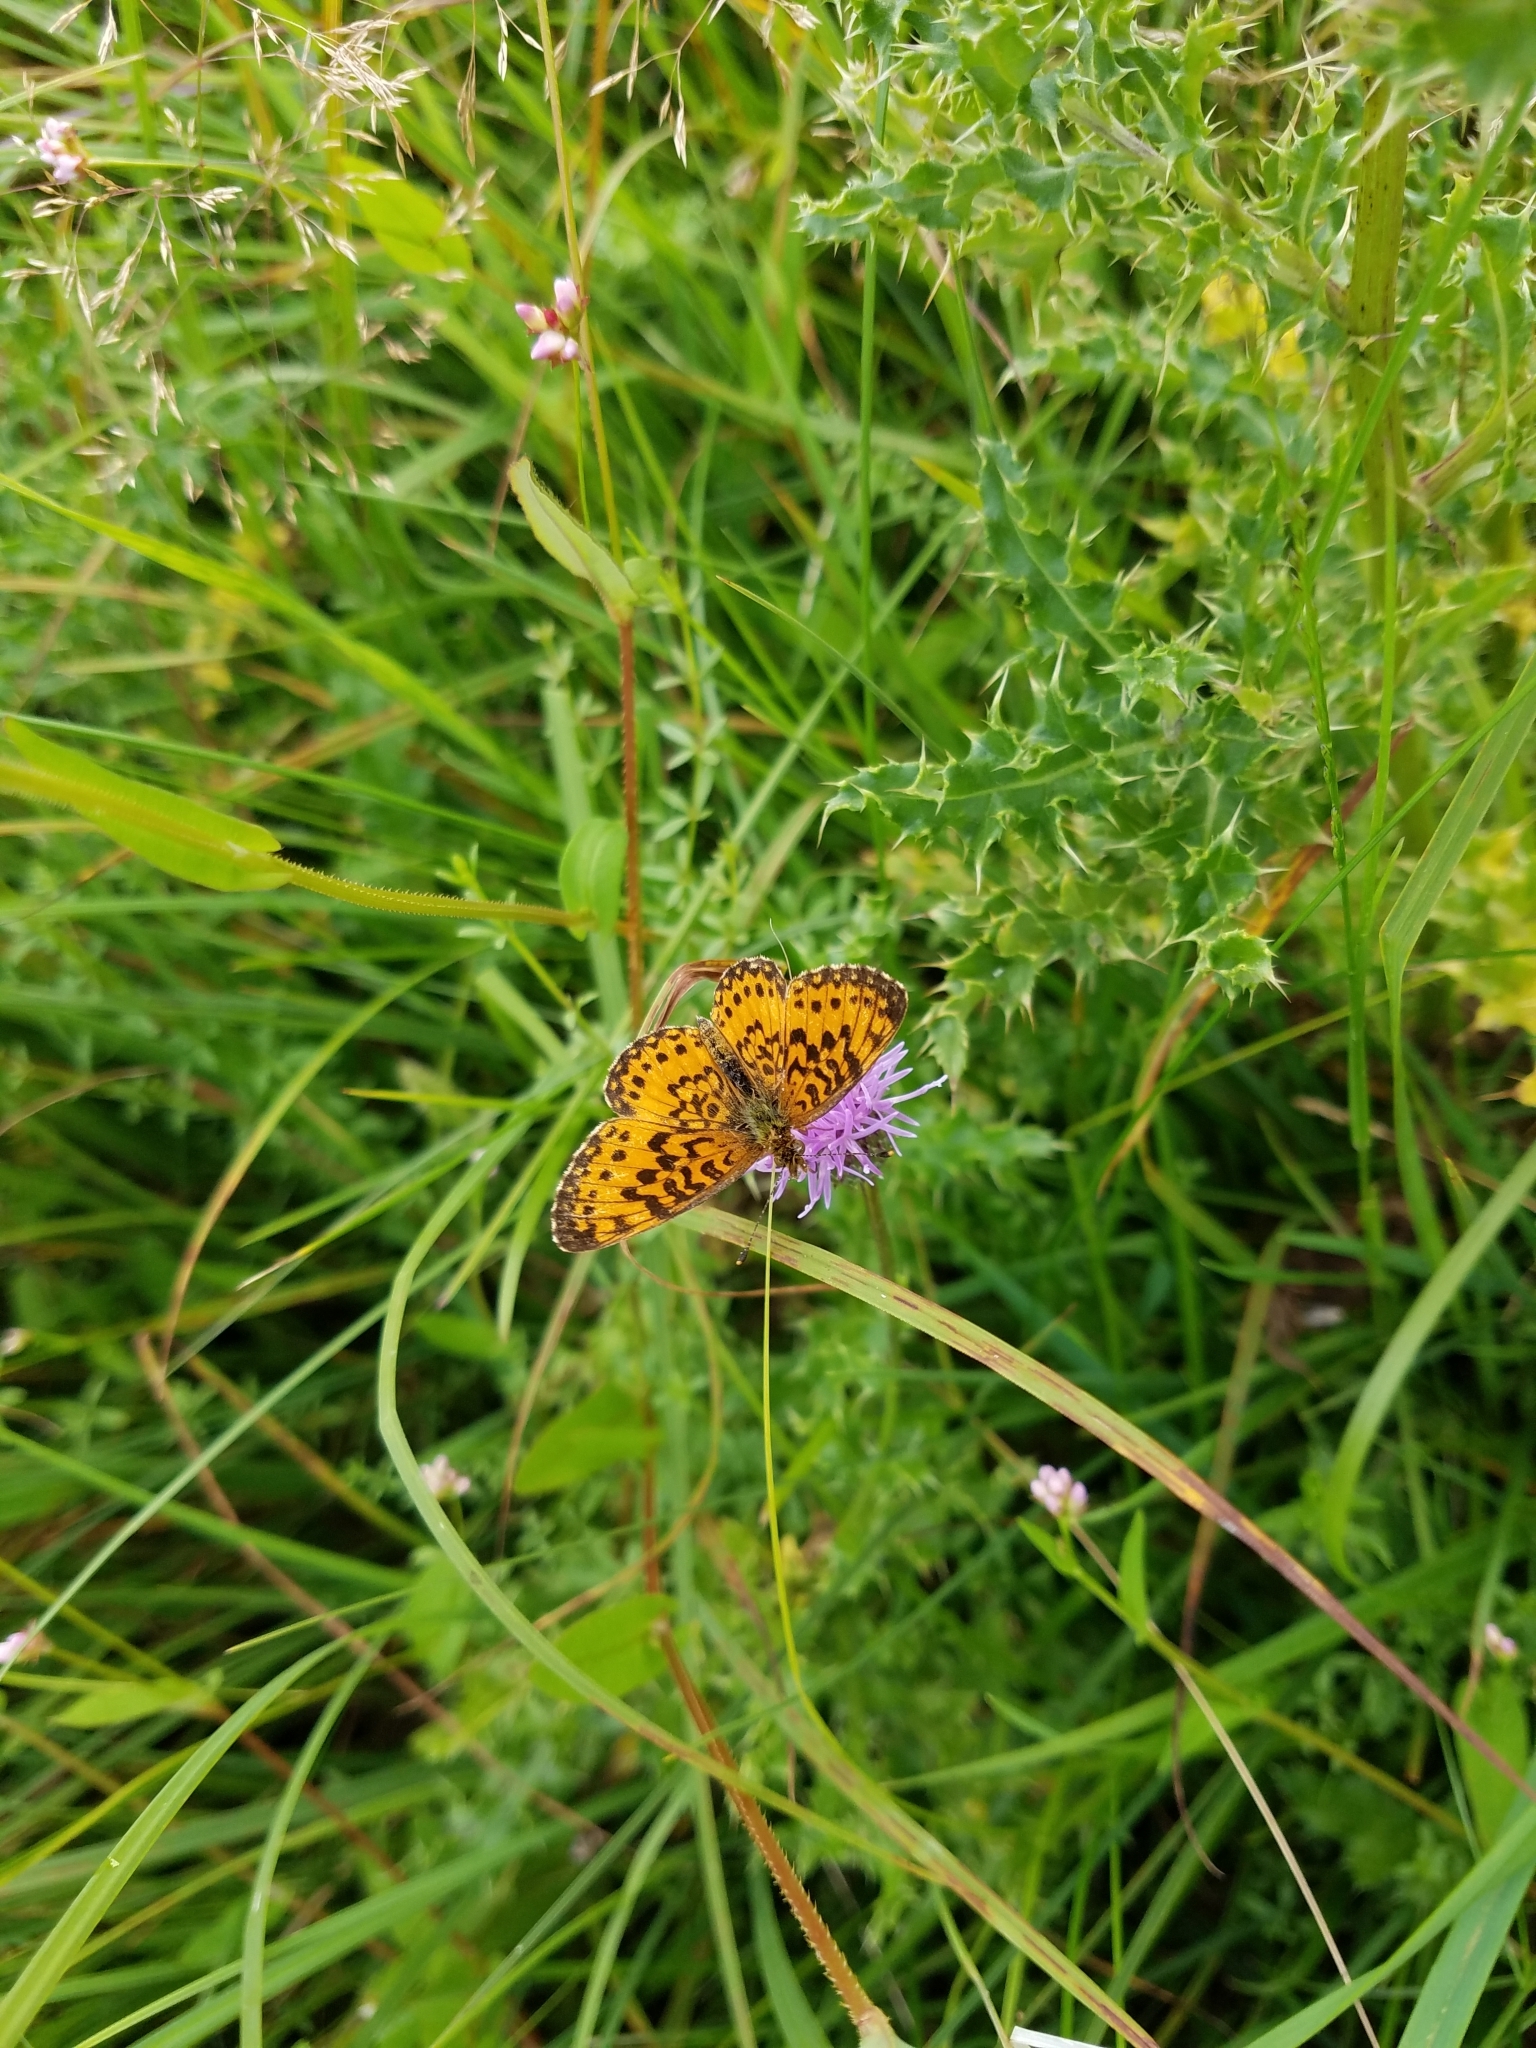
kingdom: Animalia
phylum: Arthropoda
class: Insecta
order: Lepidoptera
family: Nymphalidae
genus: Boloria
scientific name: Boloria
